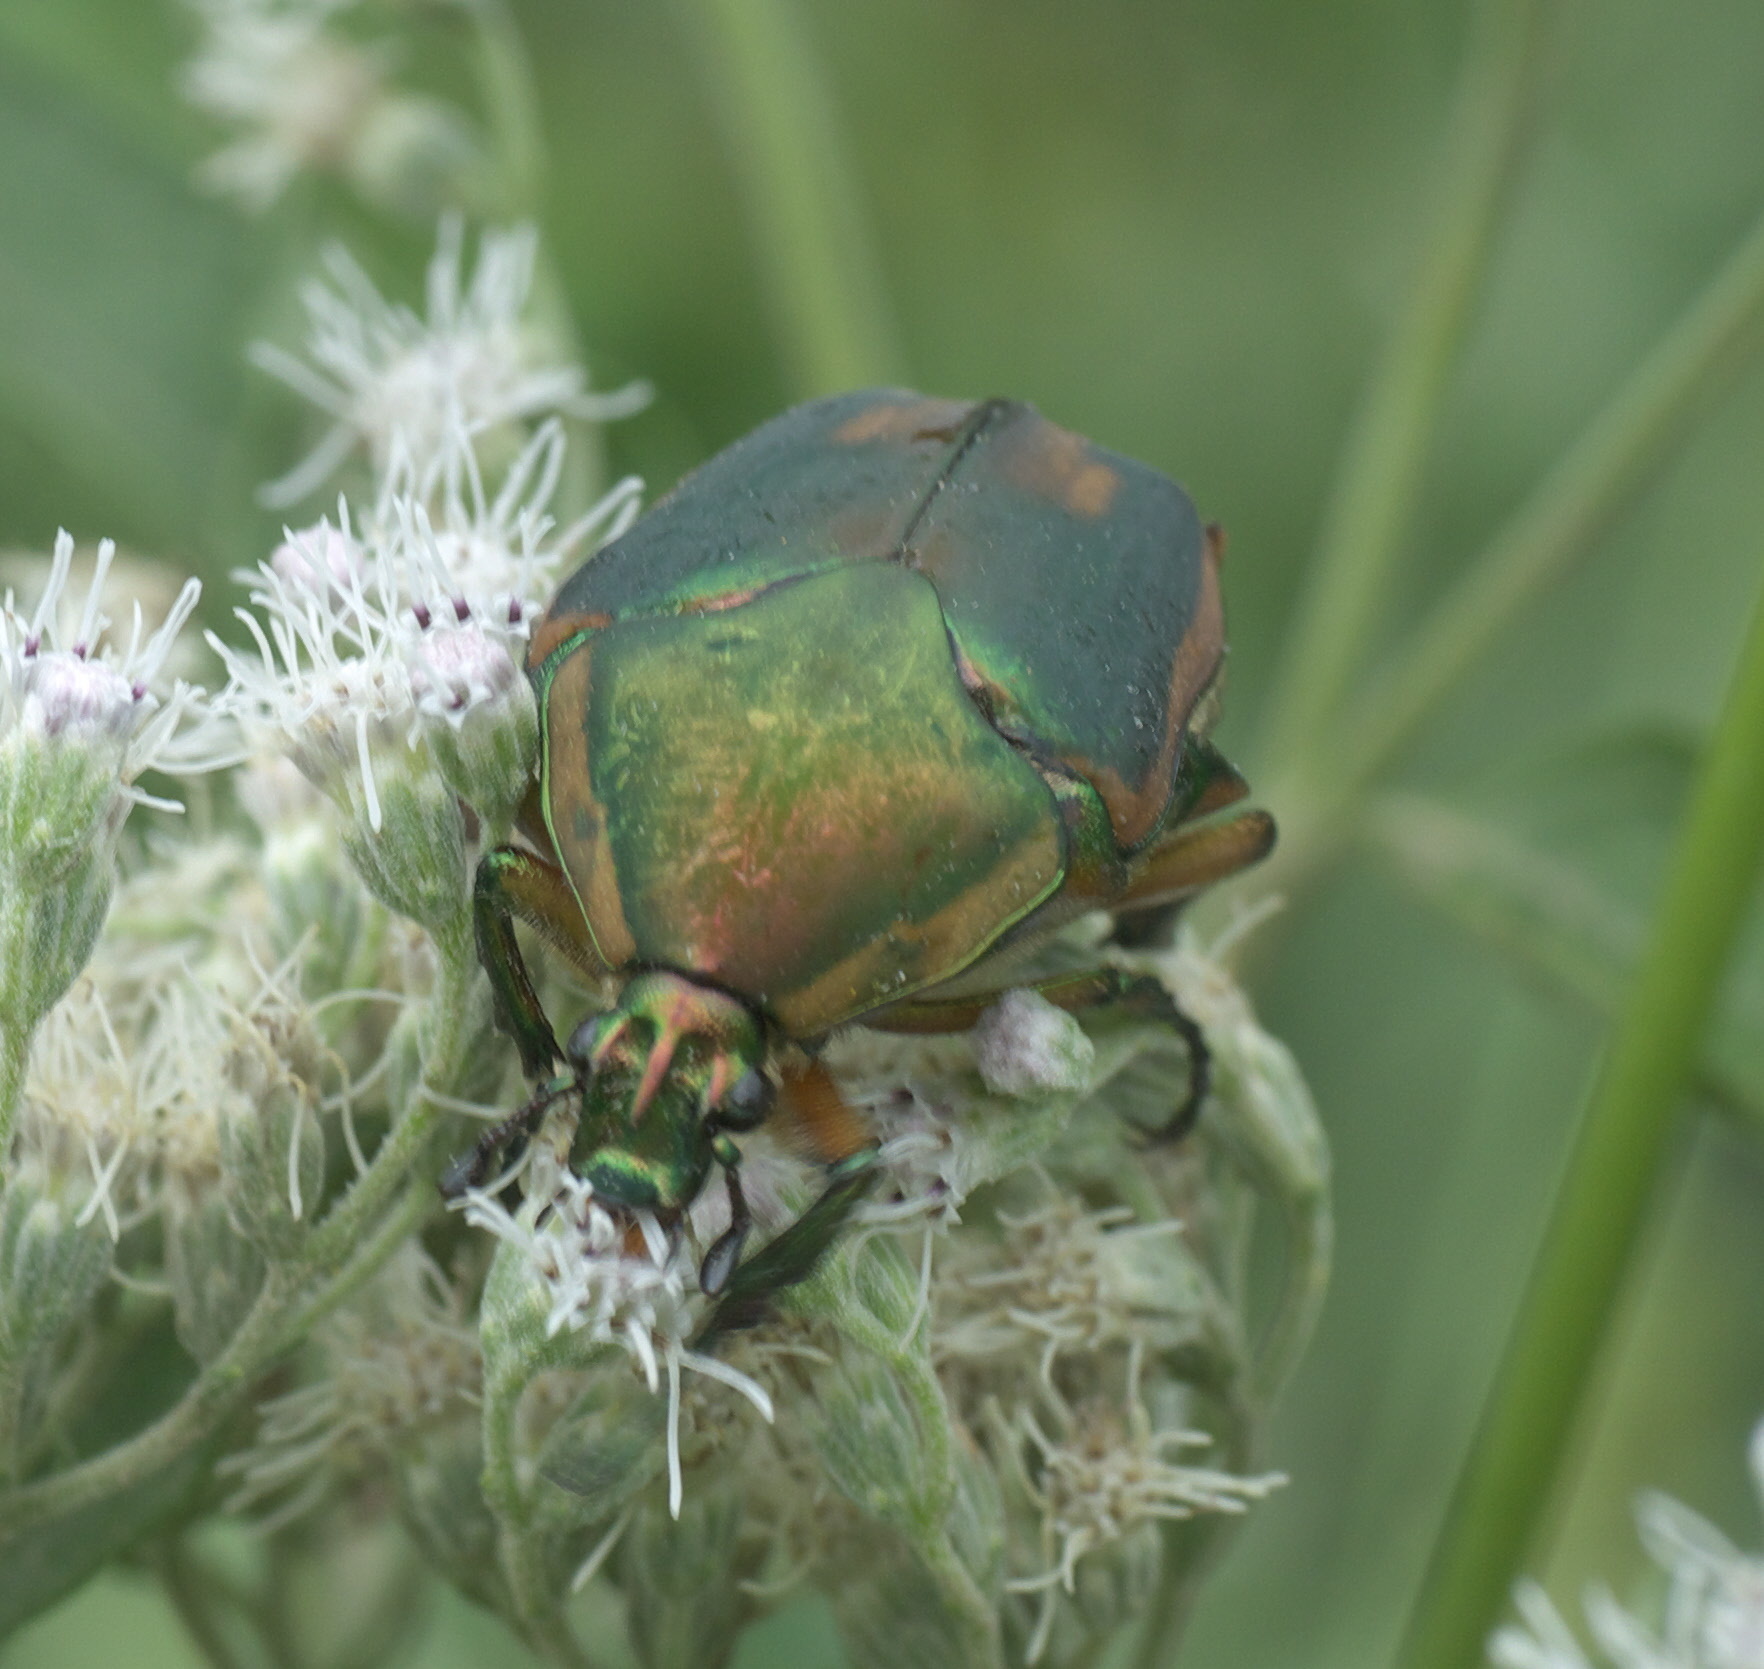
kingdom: Animalia
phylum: Arthropoda
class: Insecta
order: Coleoptera
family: Scarabaeidae
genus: Cotinis
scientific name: Cotinis nitida
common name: Common green june beetle
